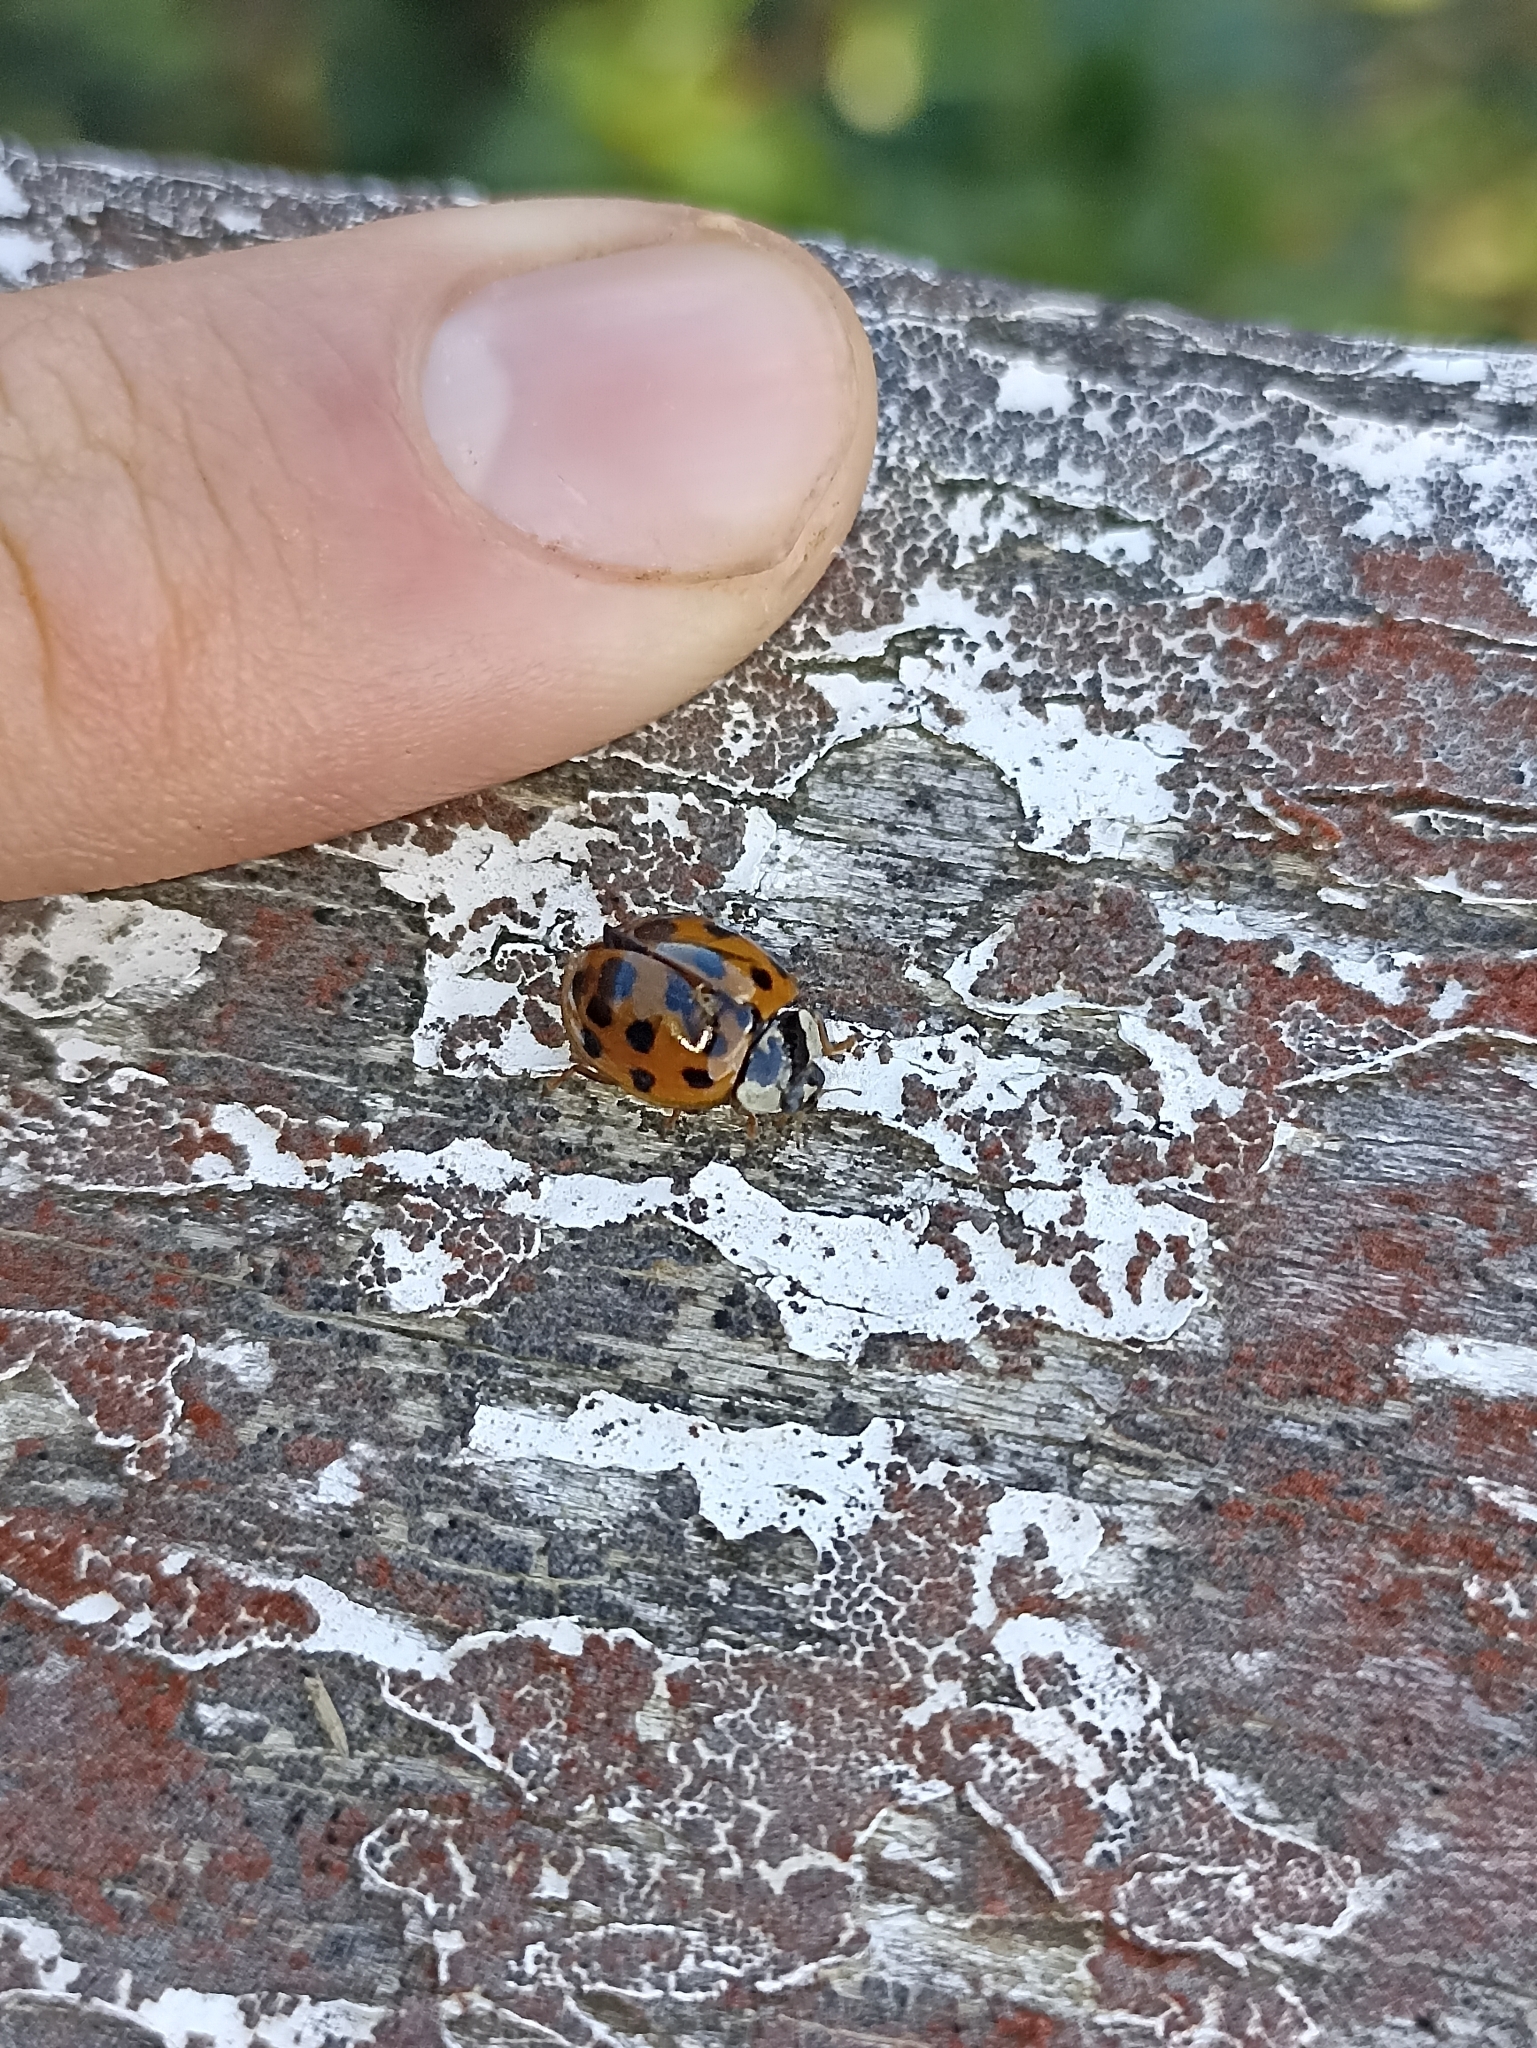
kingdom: Animalia
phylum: Arthropoda
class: Insecta
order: Coleoptera
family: Coccinellidae
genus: Harmonia
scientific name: Harmonia axyridis
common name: Harlequin ladybird
